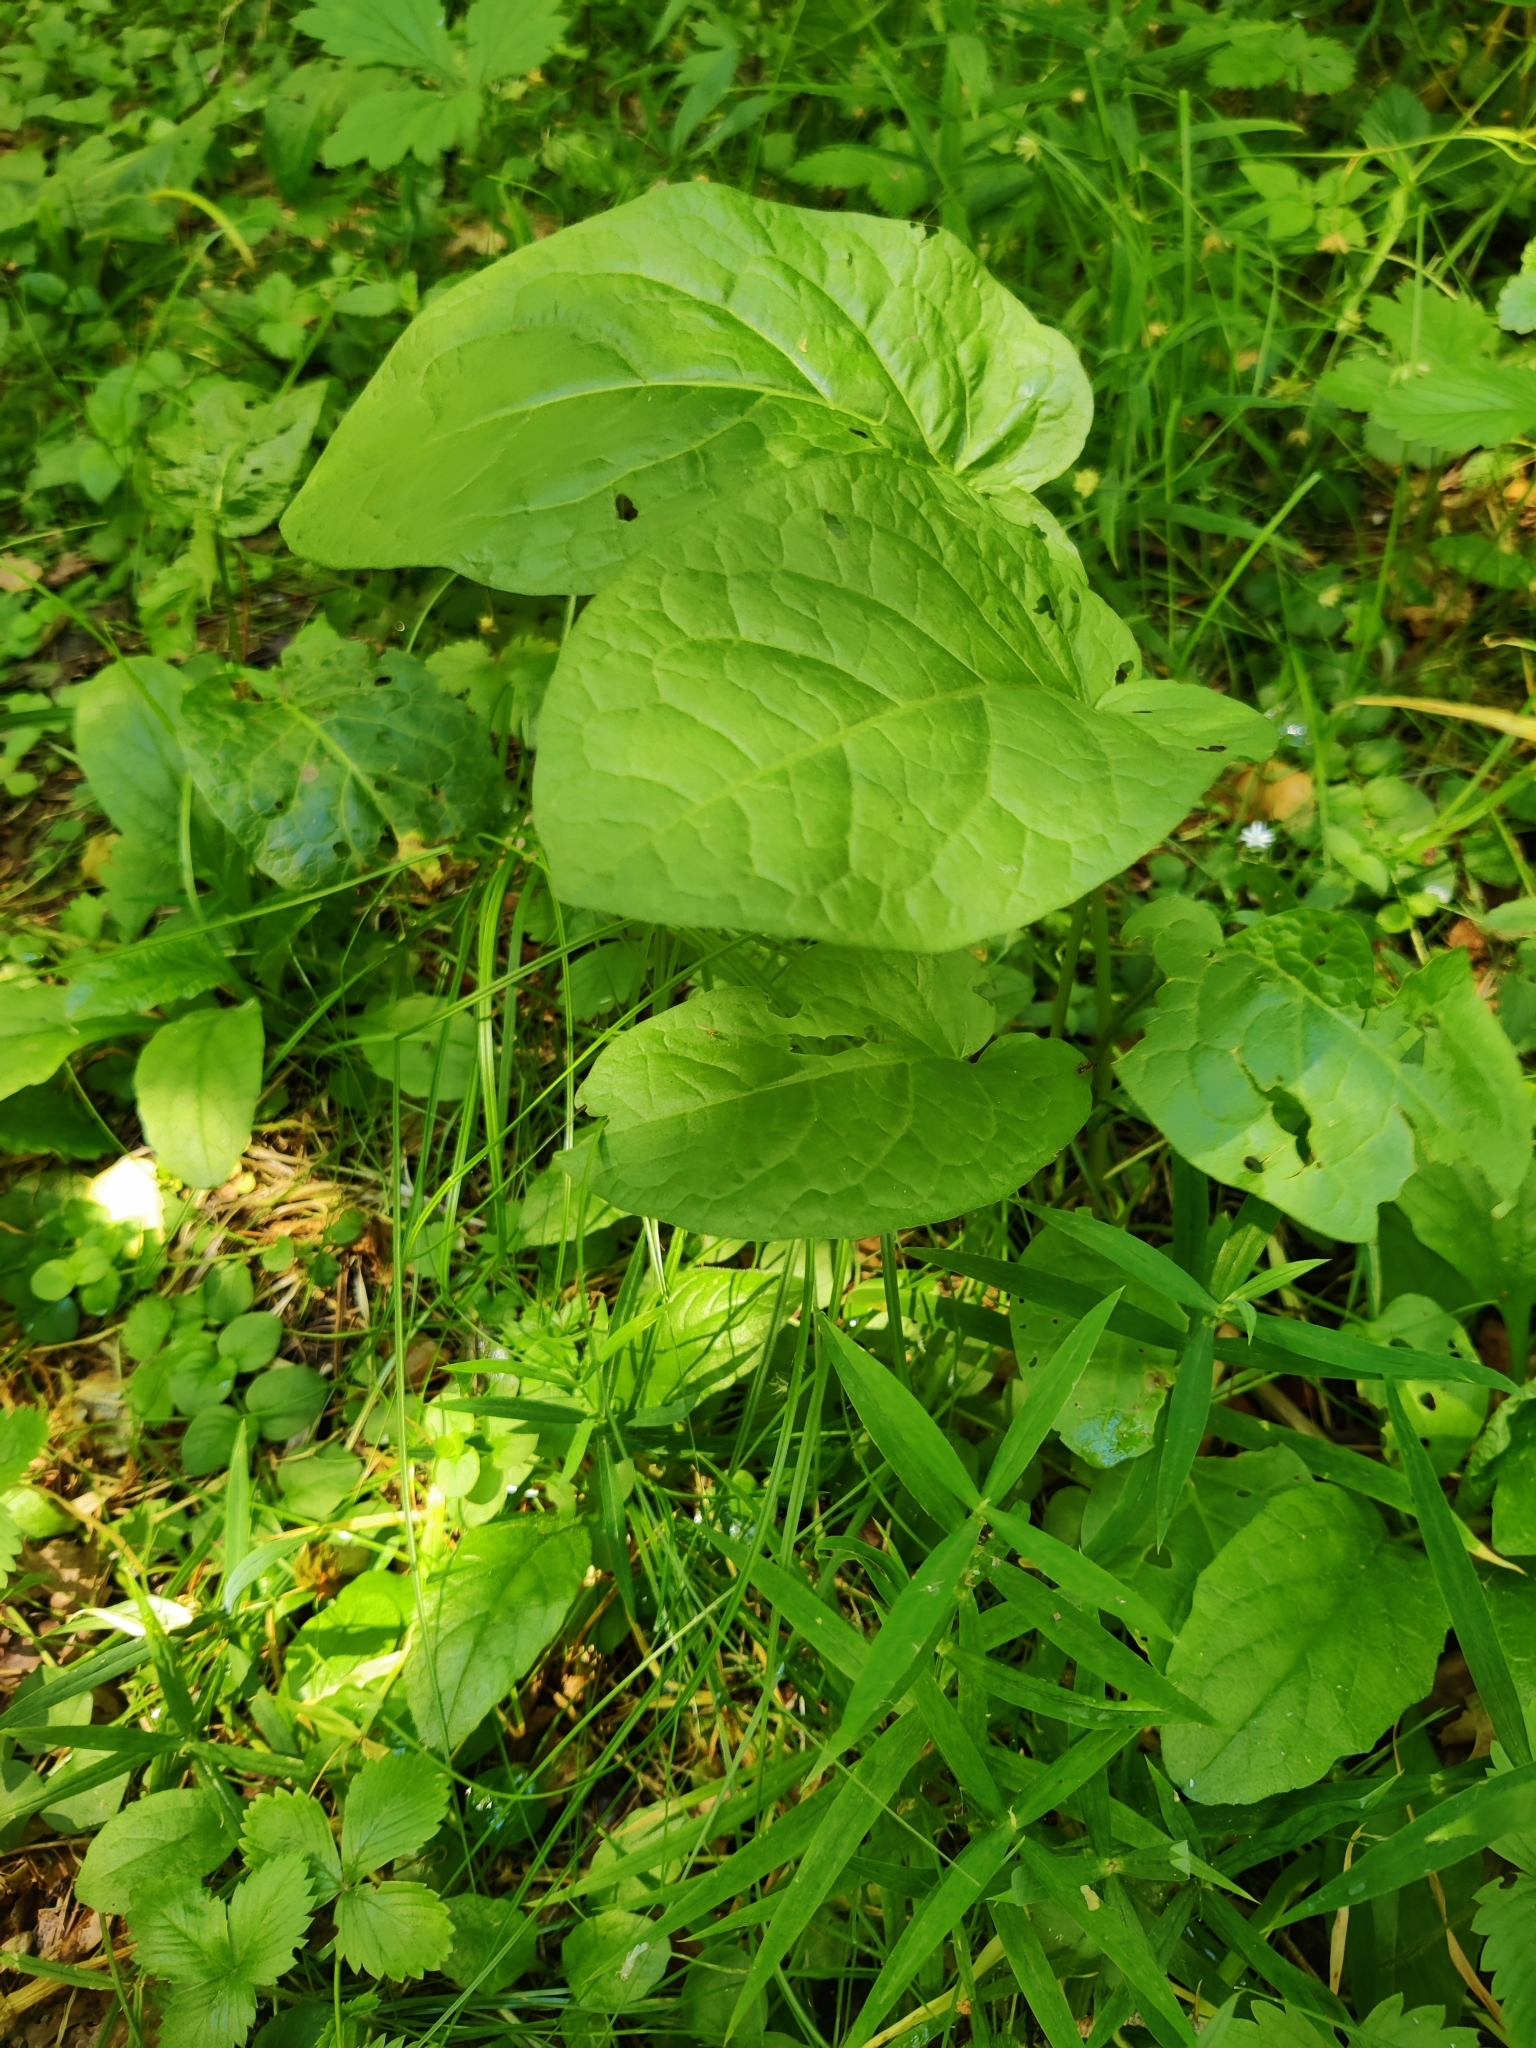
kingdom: Plantae
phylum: Tracheophyta
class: Magnoliopsida
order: Caryophyllales
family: Polygonaceae
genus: Rumex
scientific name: Rumex obtusifolius
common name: Bitter dock
